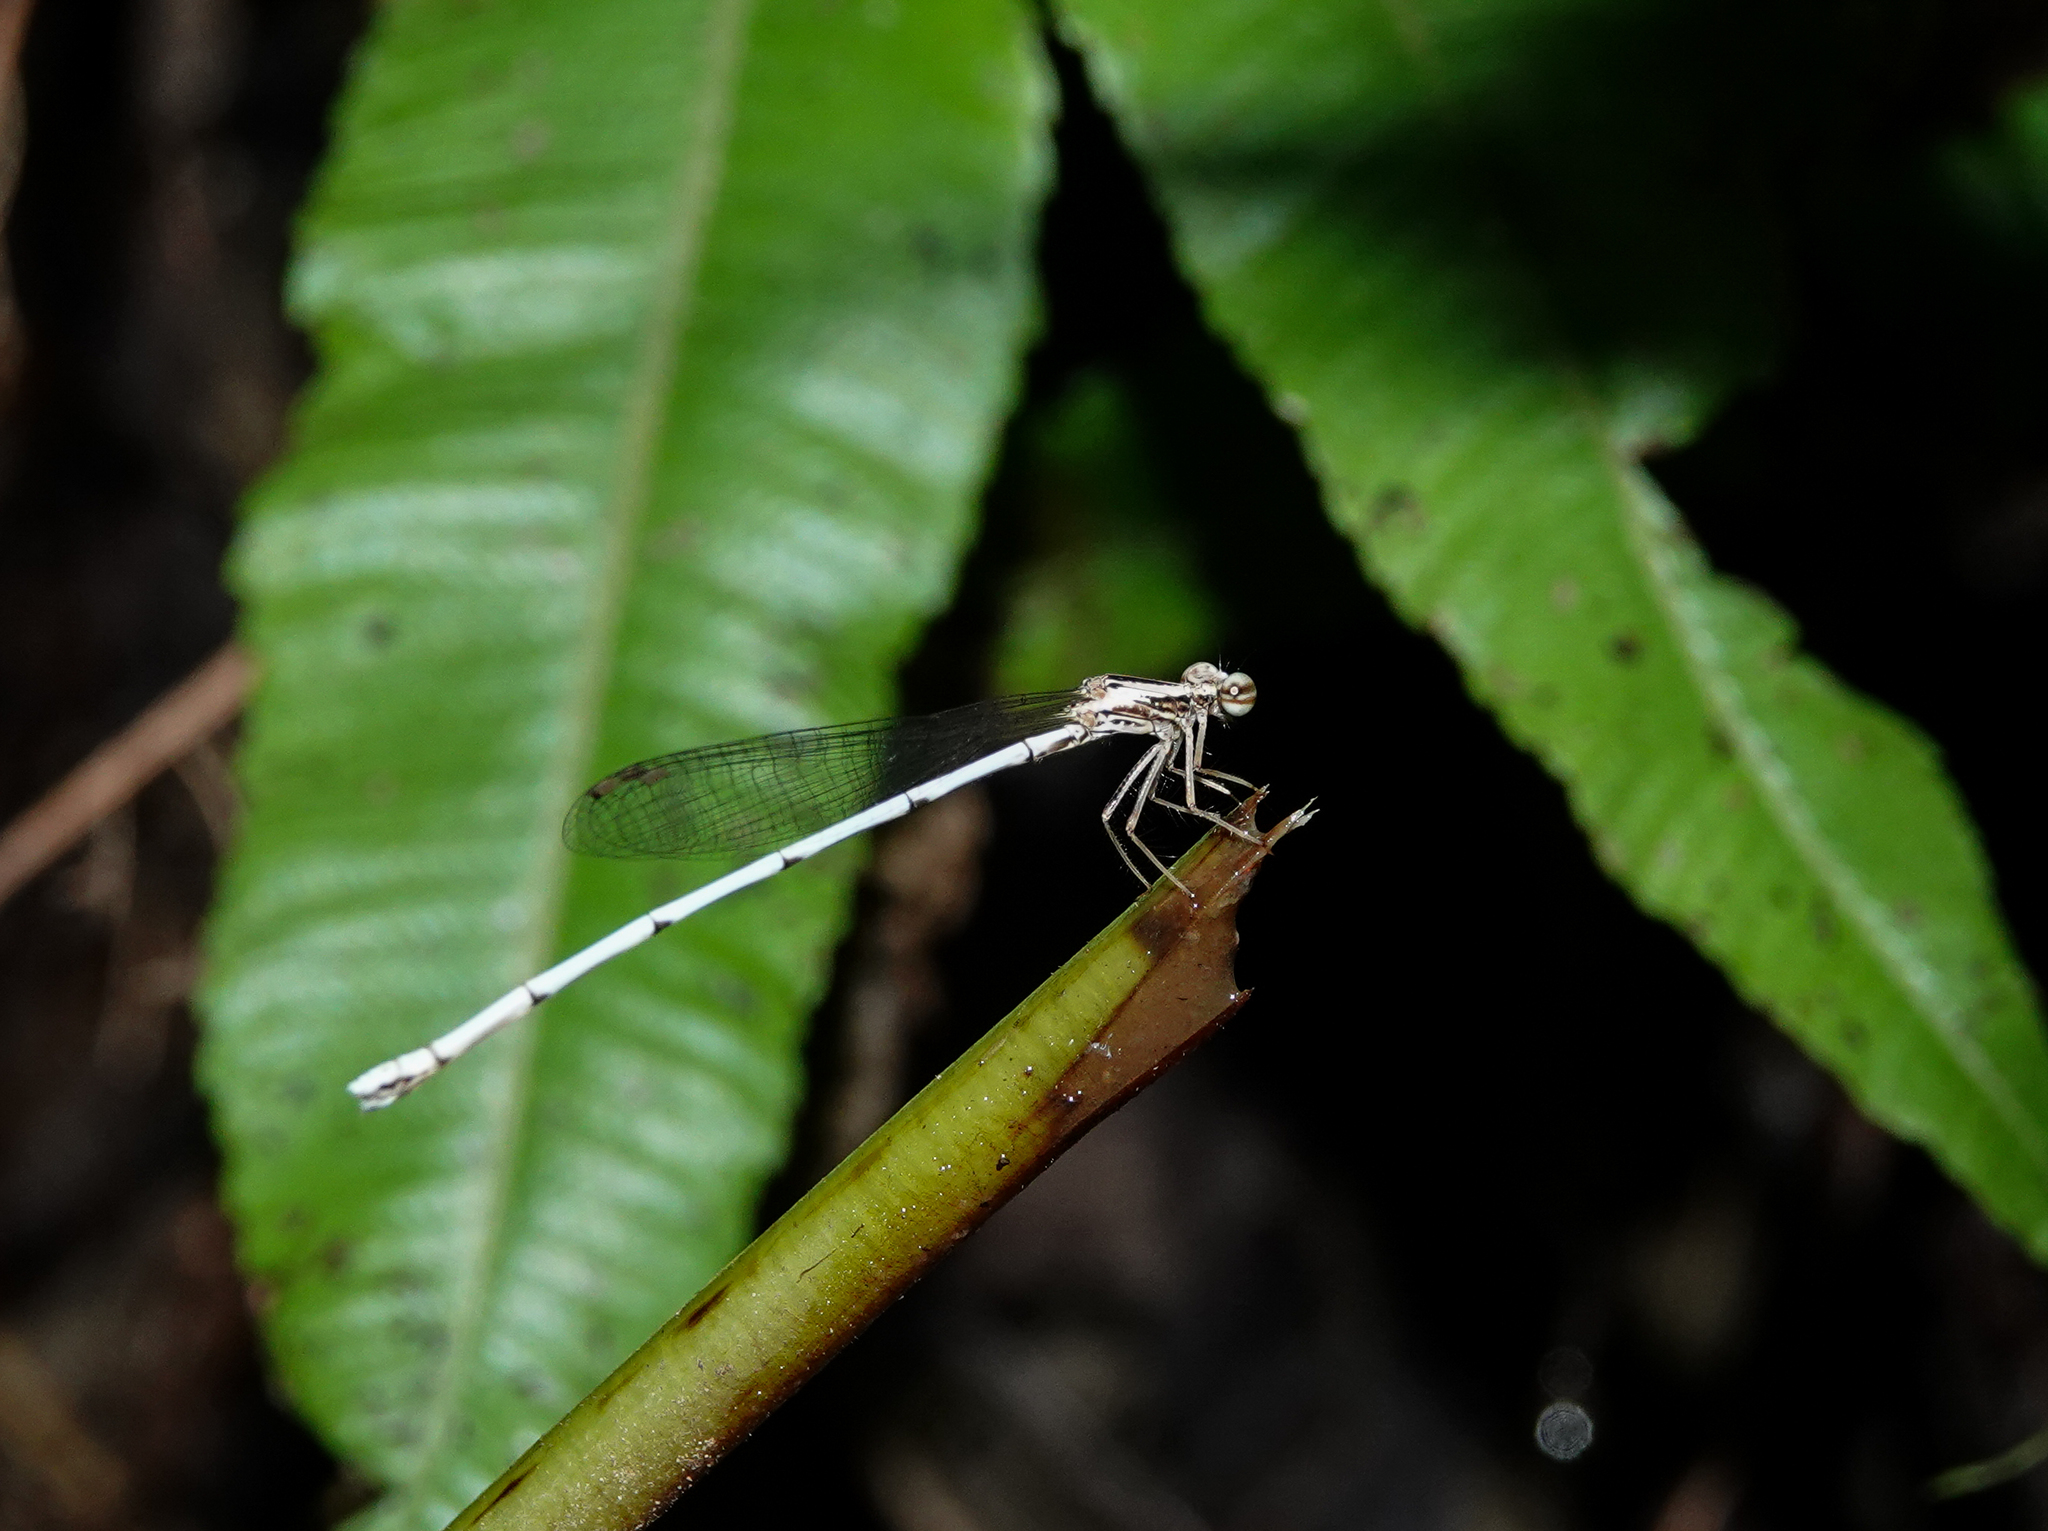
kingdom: Animalia
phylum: Arthropoda
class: Insecta
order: Odonata
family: Platycnemididae
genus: Copera
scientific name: Copera marginipes
